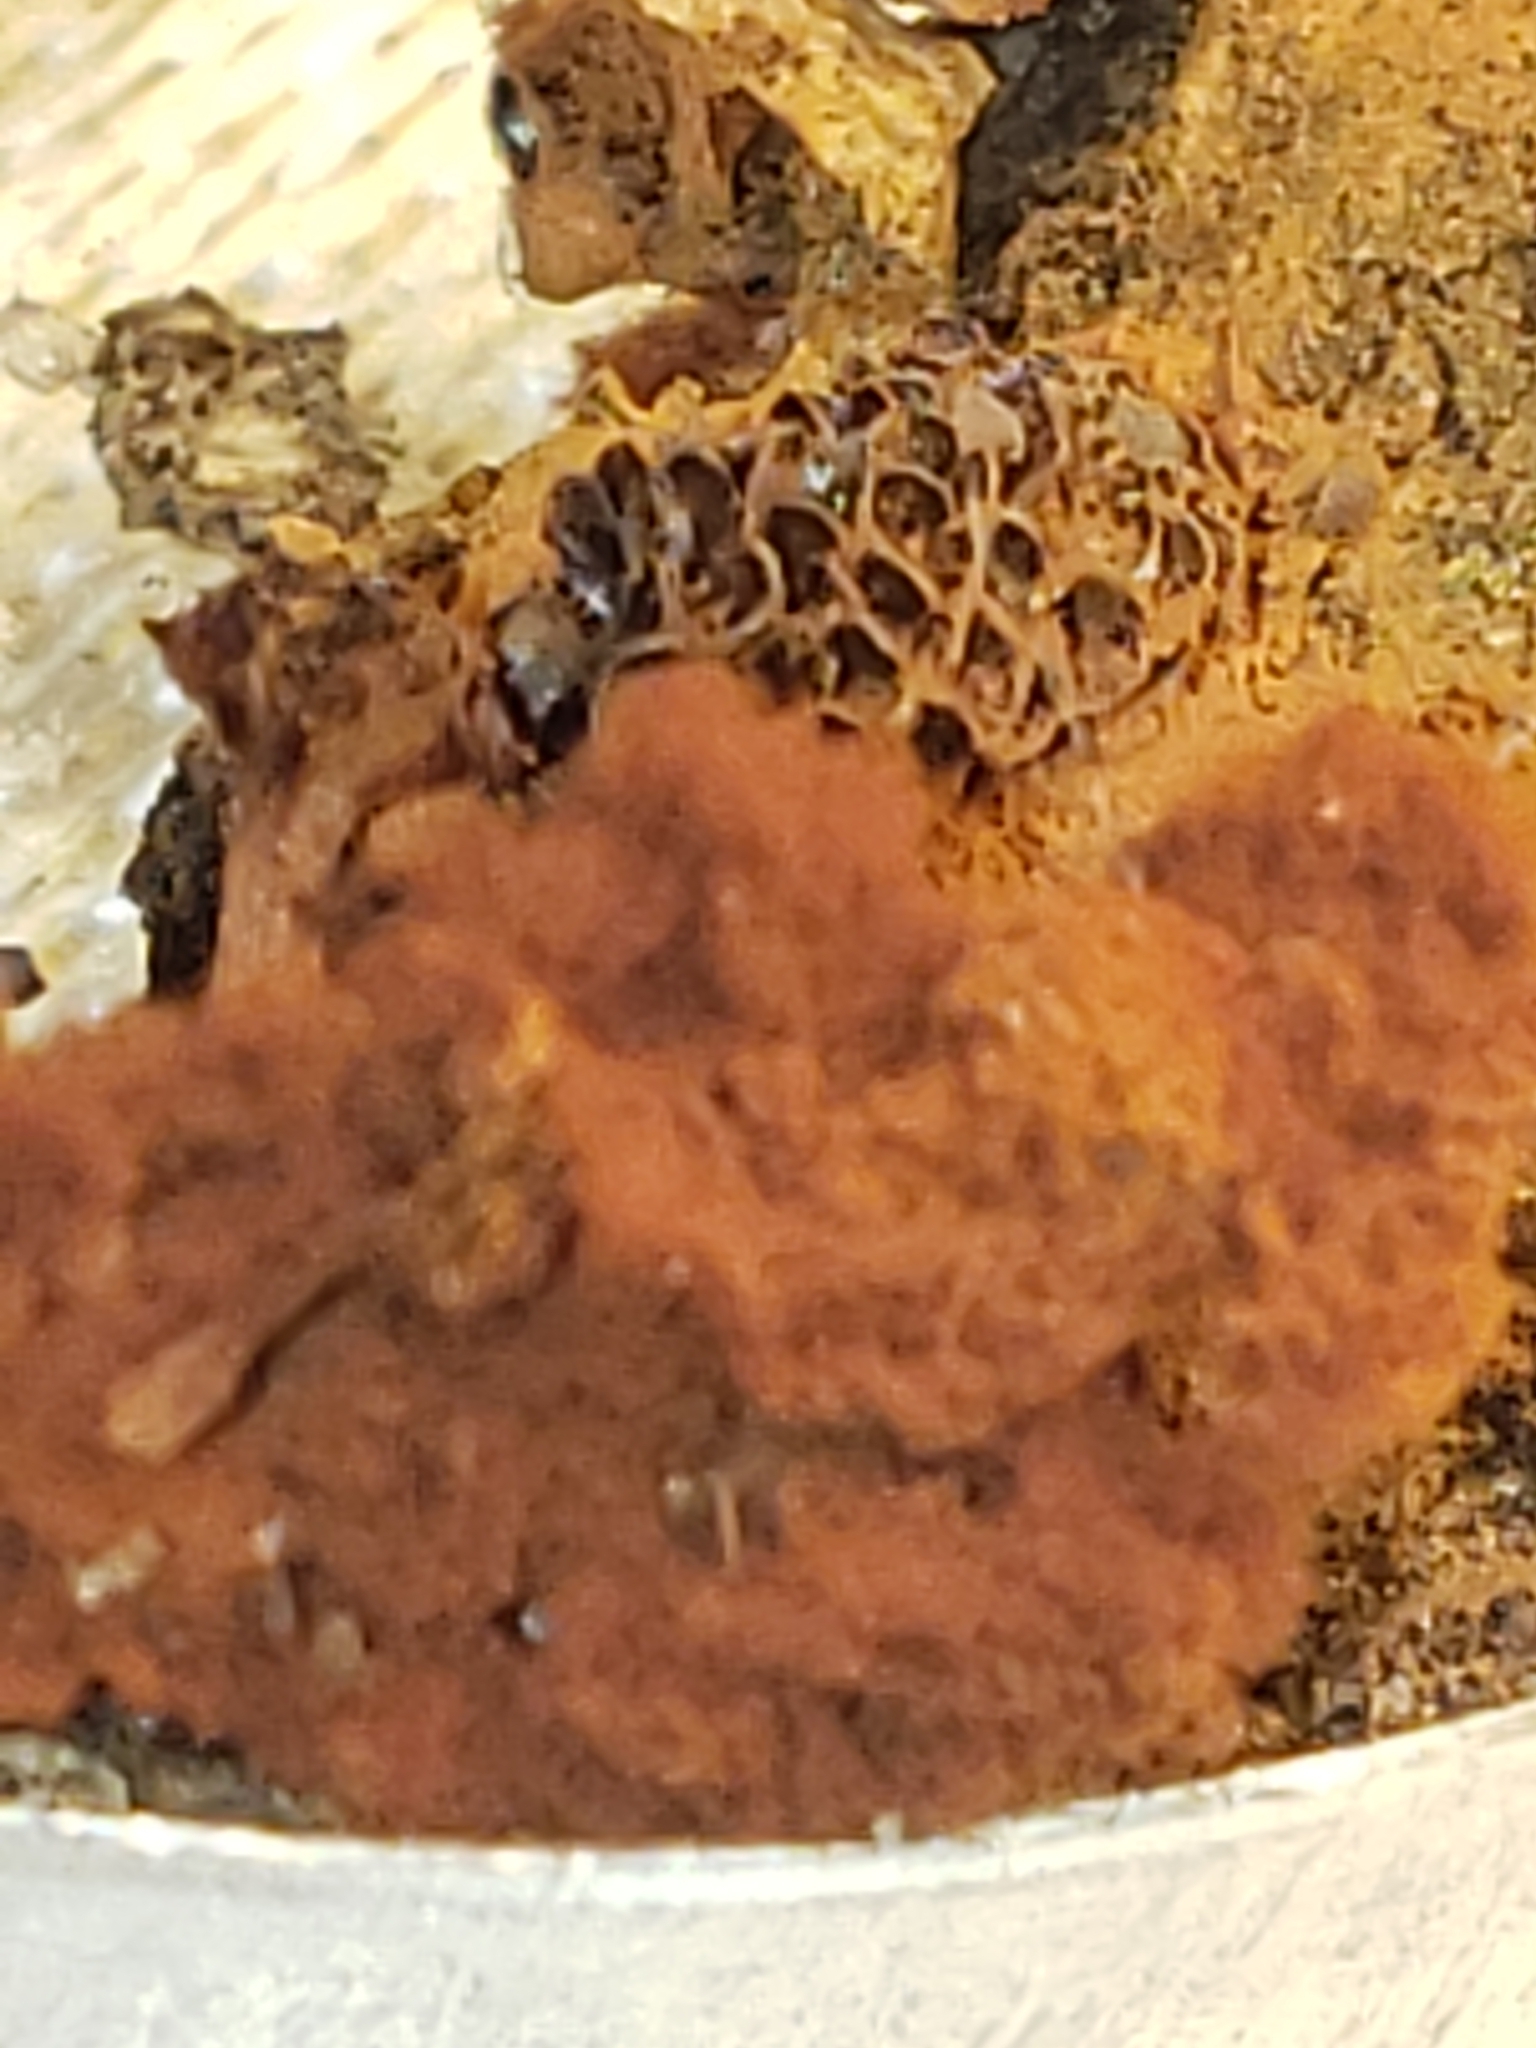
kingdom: Protozoa
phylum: Mycetozoa
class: Myxomycetes
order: Trichiales
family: Trichiaceae
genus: Metatrichia
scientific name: Metatrichia vesparia
